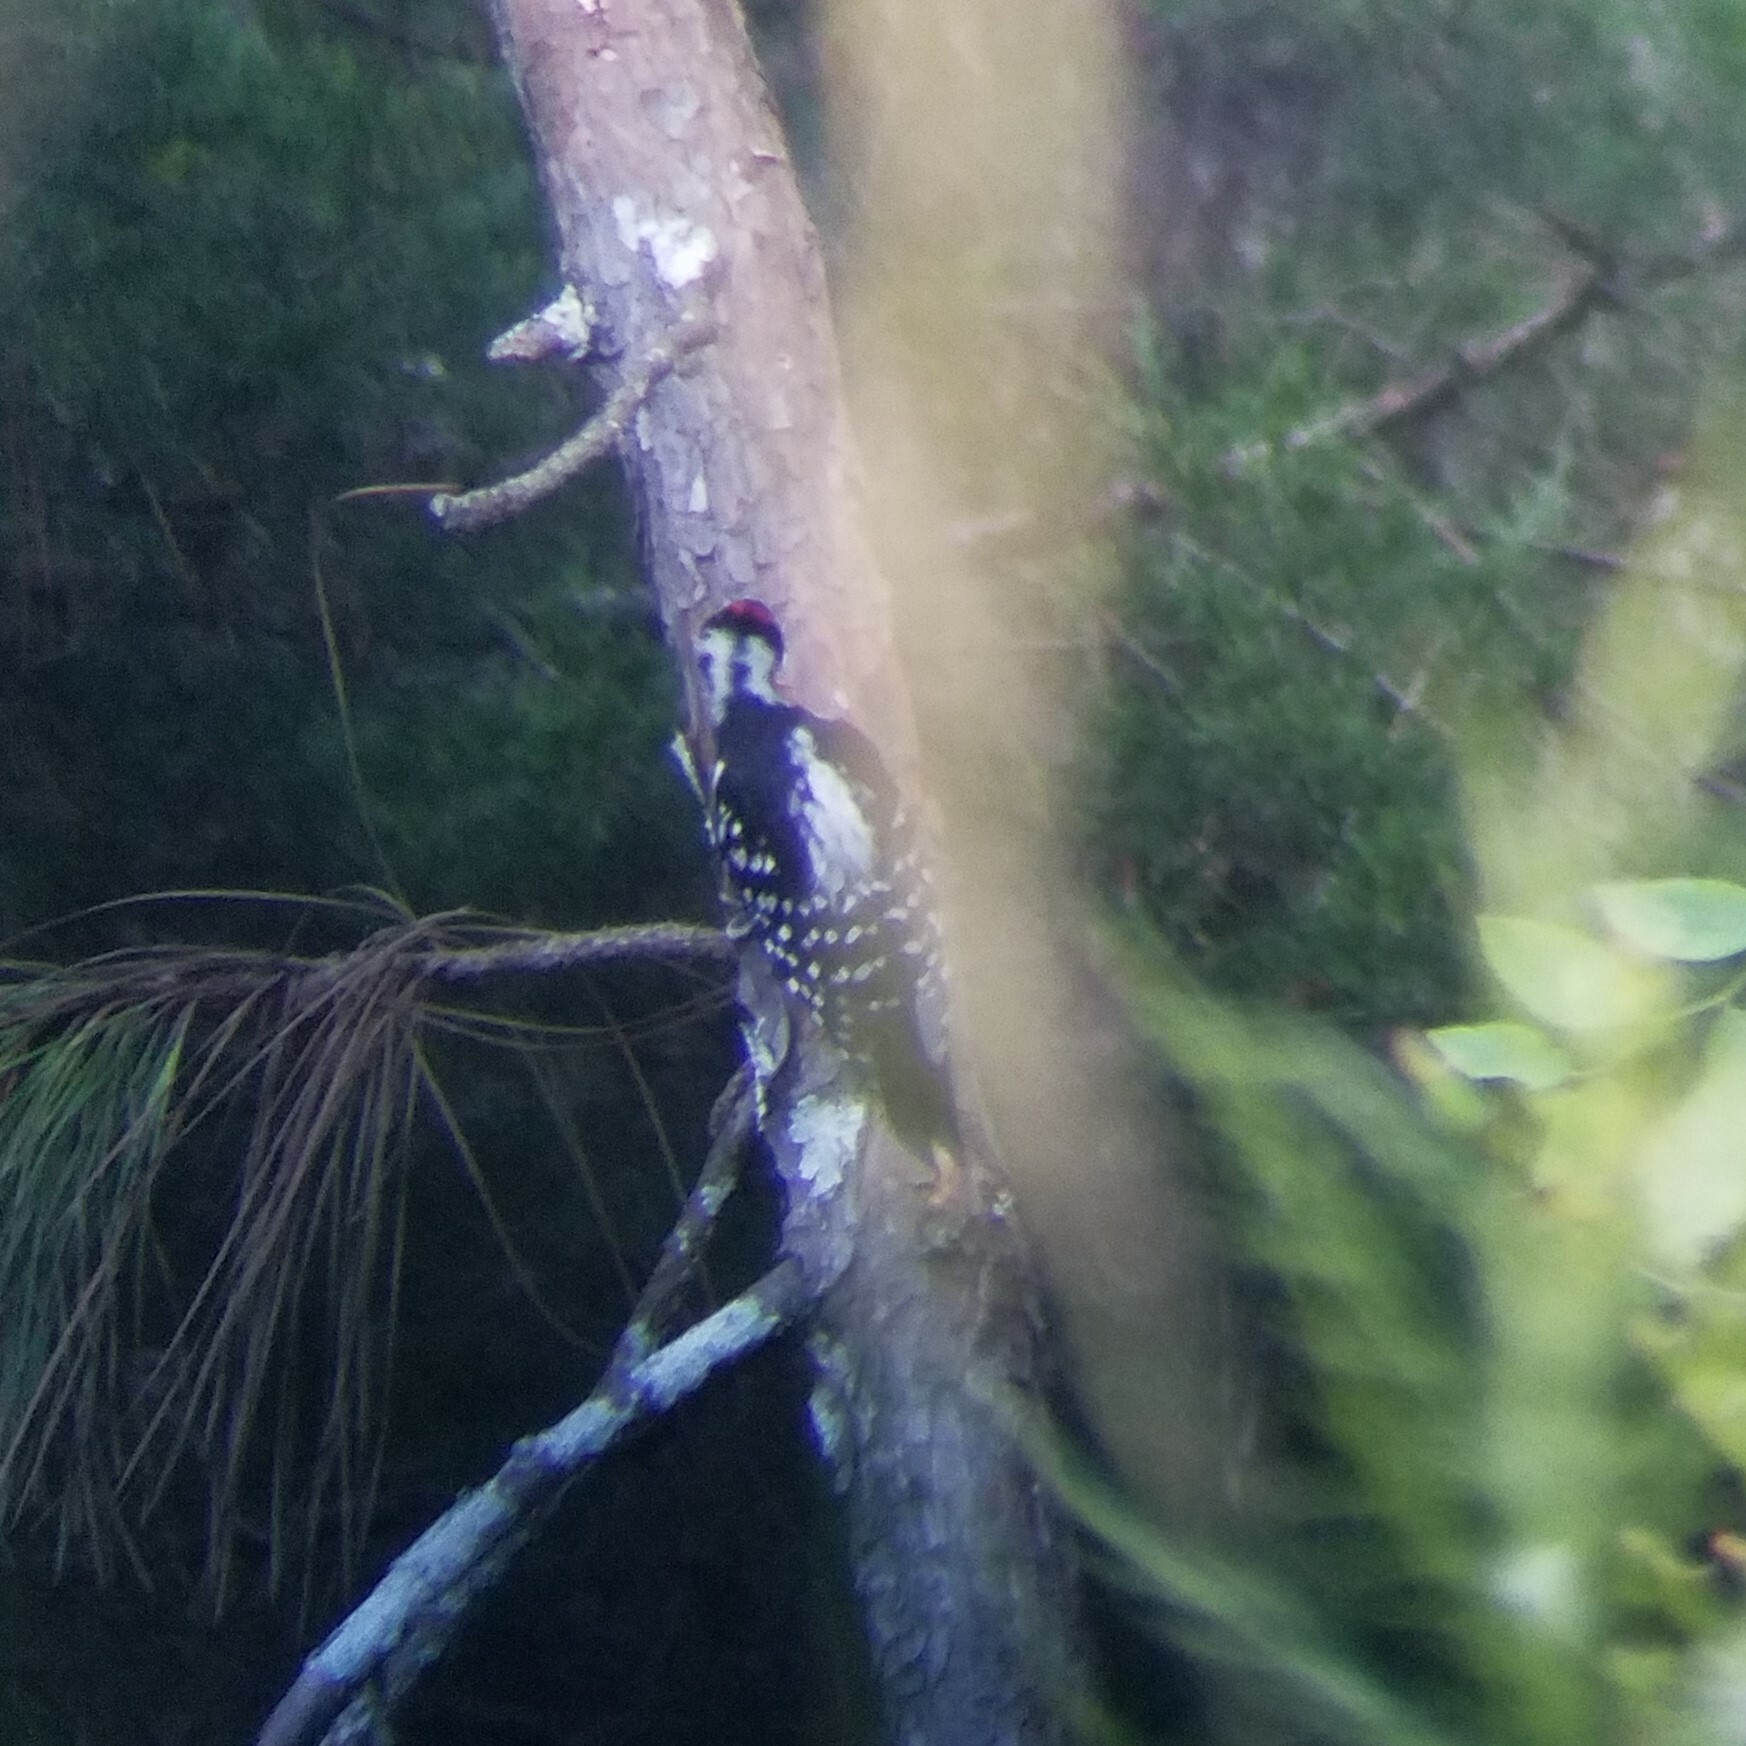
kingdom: Animalia
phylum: Chordata
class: Aves
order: Piciformes
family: Picidae
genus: Leuconotopicus
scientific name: Leuconotopicus villosus
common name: Hairy woodpecker
